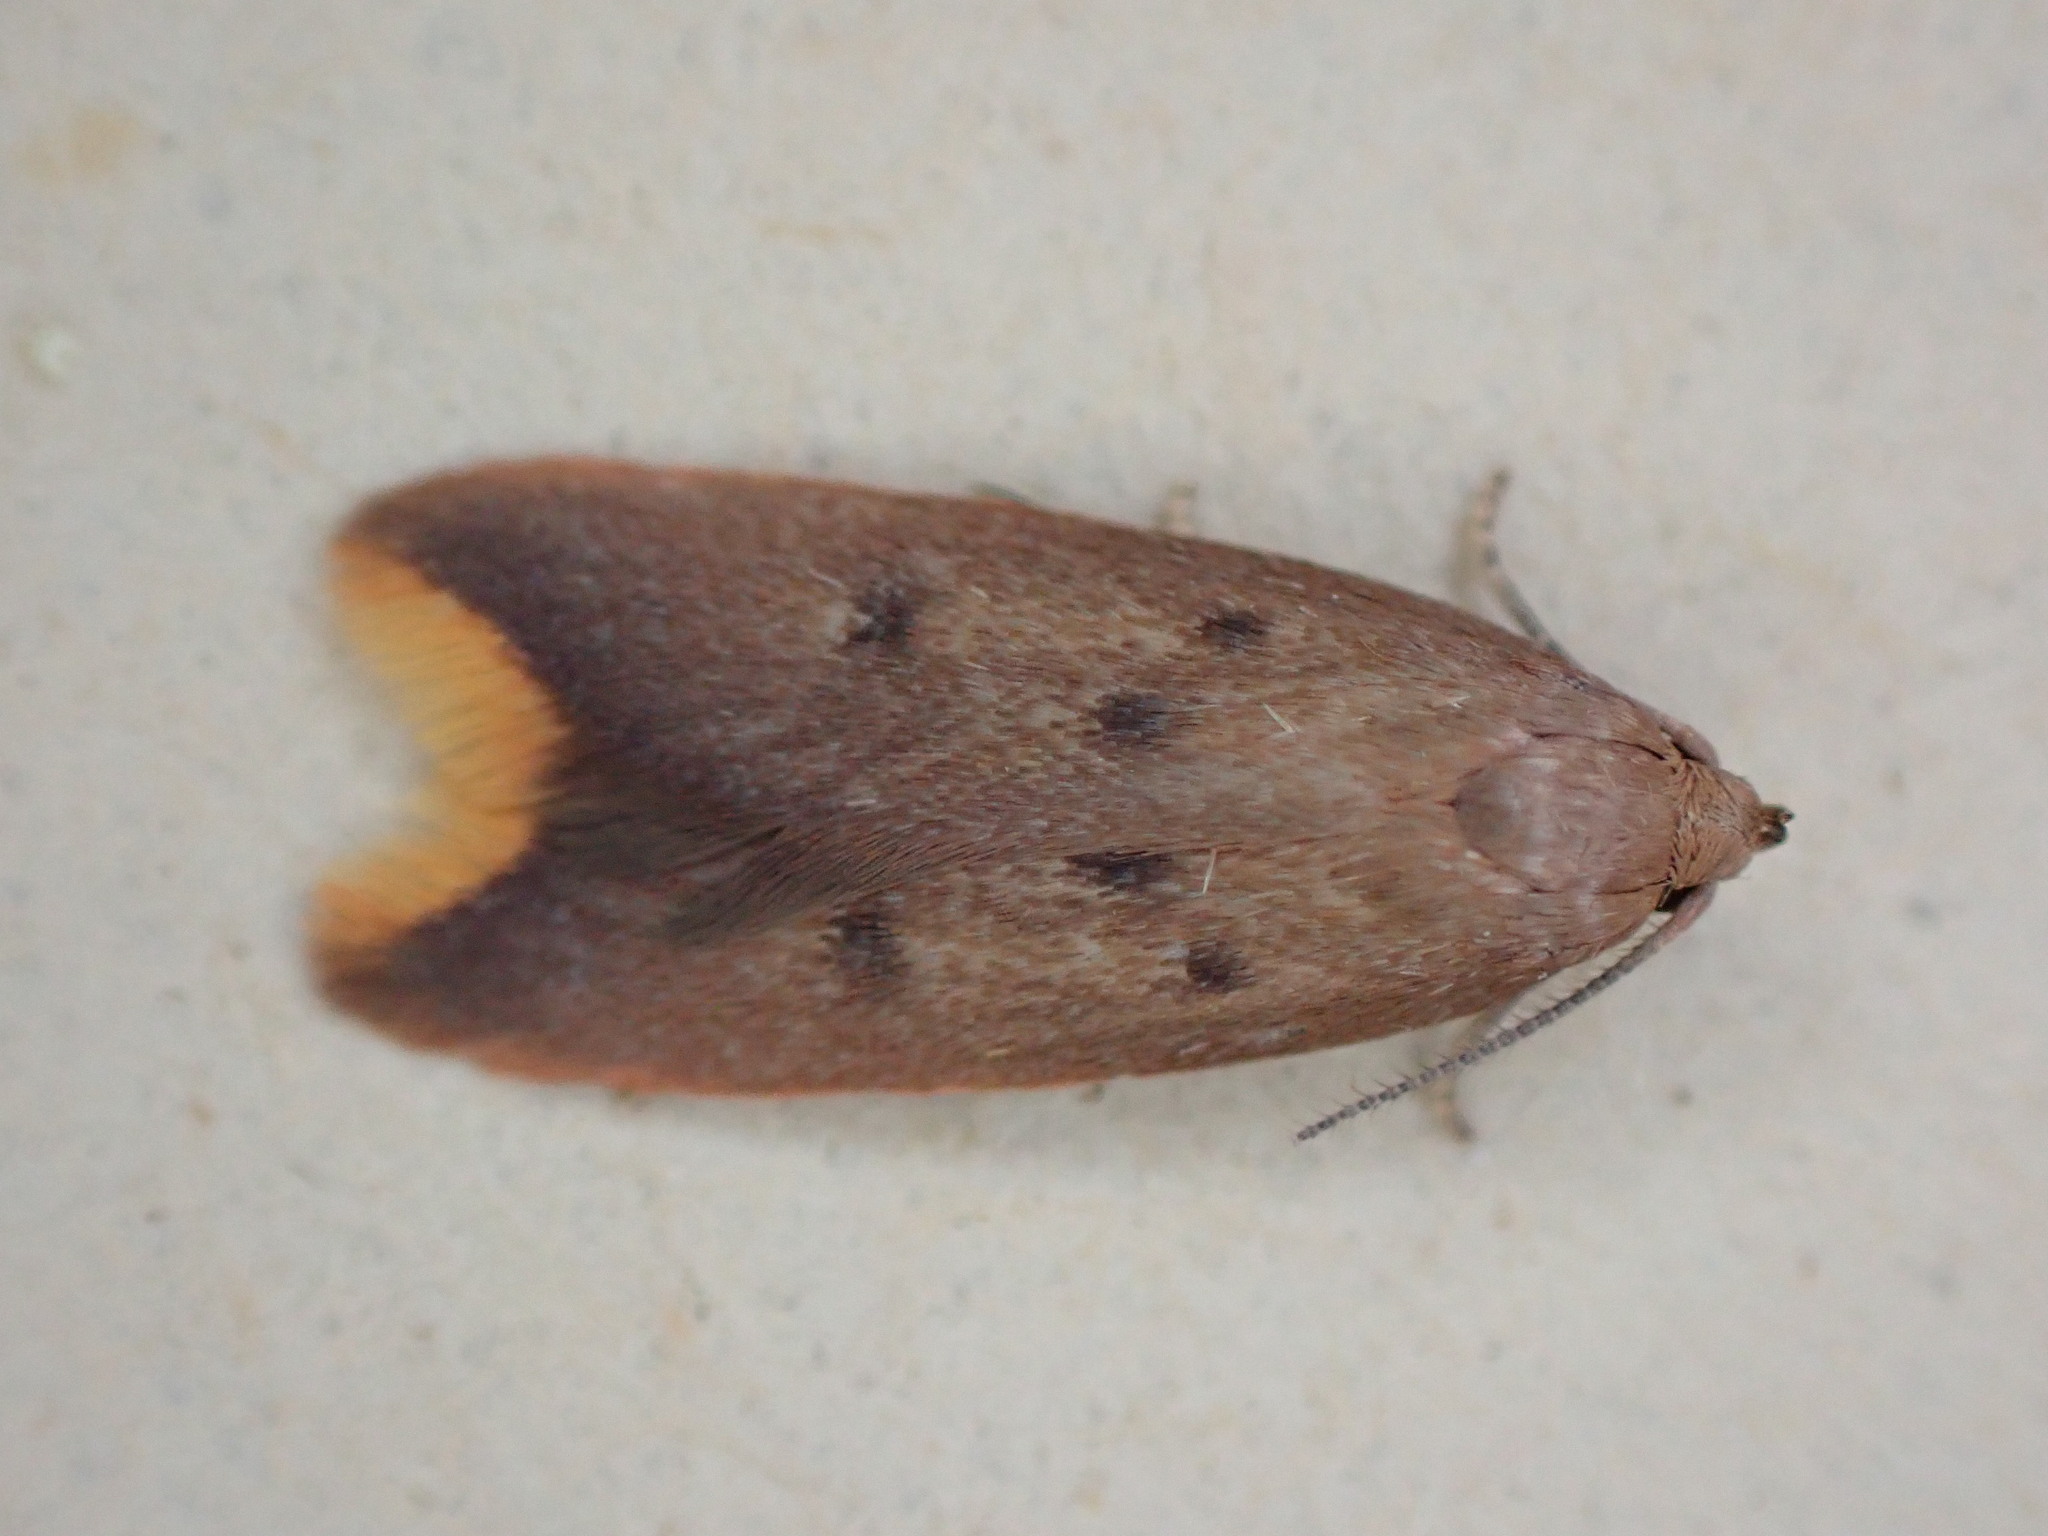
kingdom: Animalia
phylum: Arthropoda
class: Insecta
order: Lepidoptera
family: Oecophoridae
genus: Tachystola
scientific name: Tachystola acroxantha
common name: Ruddy streak
